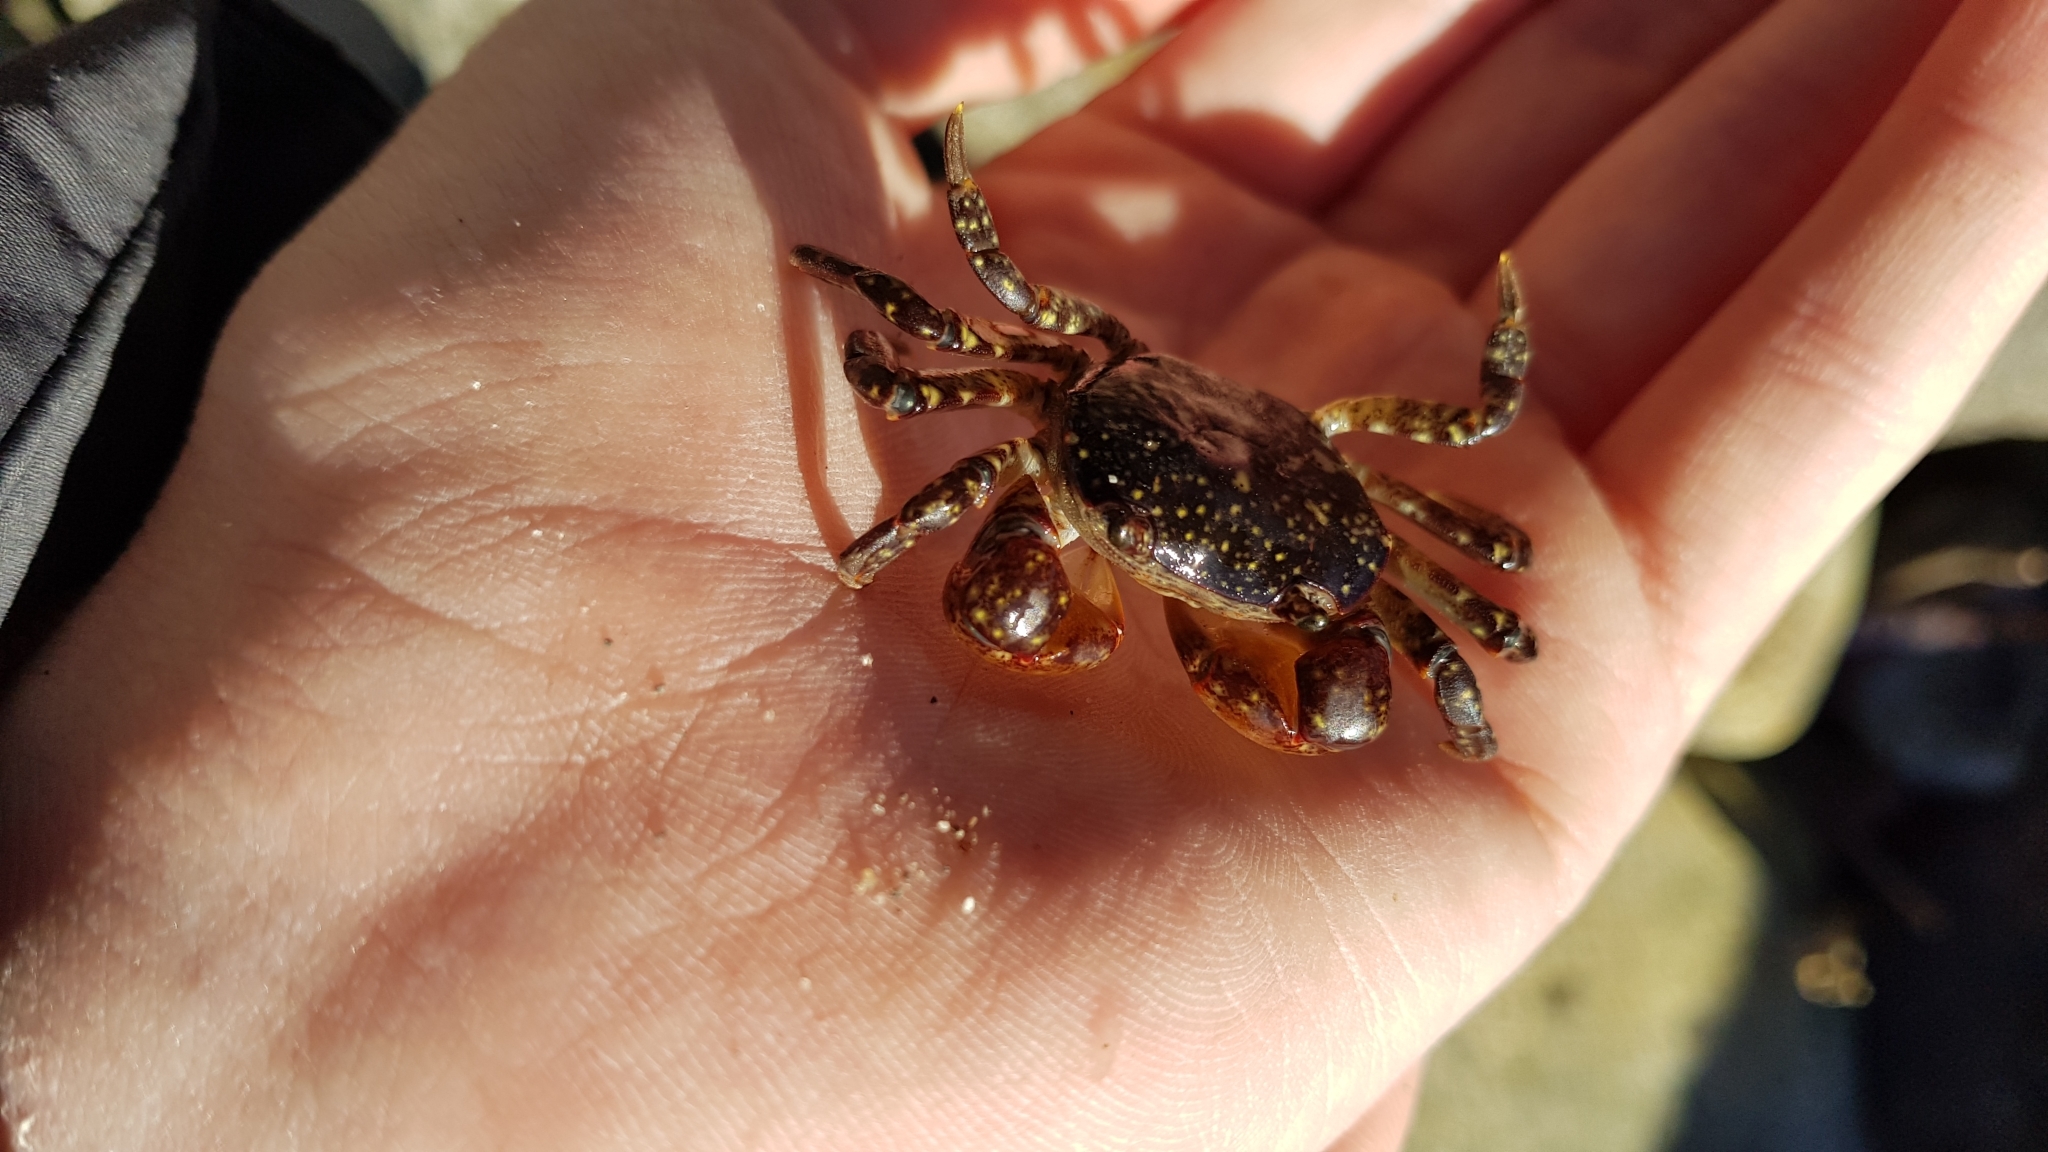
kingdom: Animalia
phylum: Arthropoda
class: Malacostraca
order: Decapoda
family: Varunidae
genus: Cyclograpsus
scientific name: Cyclograpsus lavauxi
